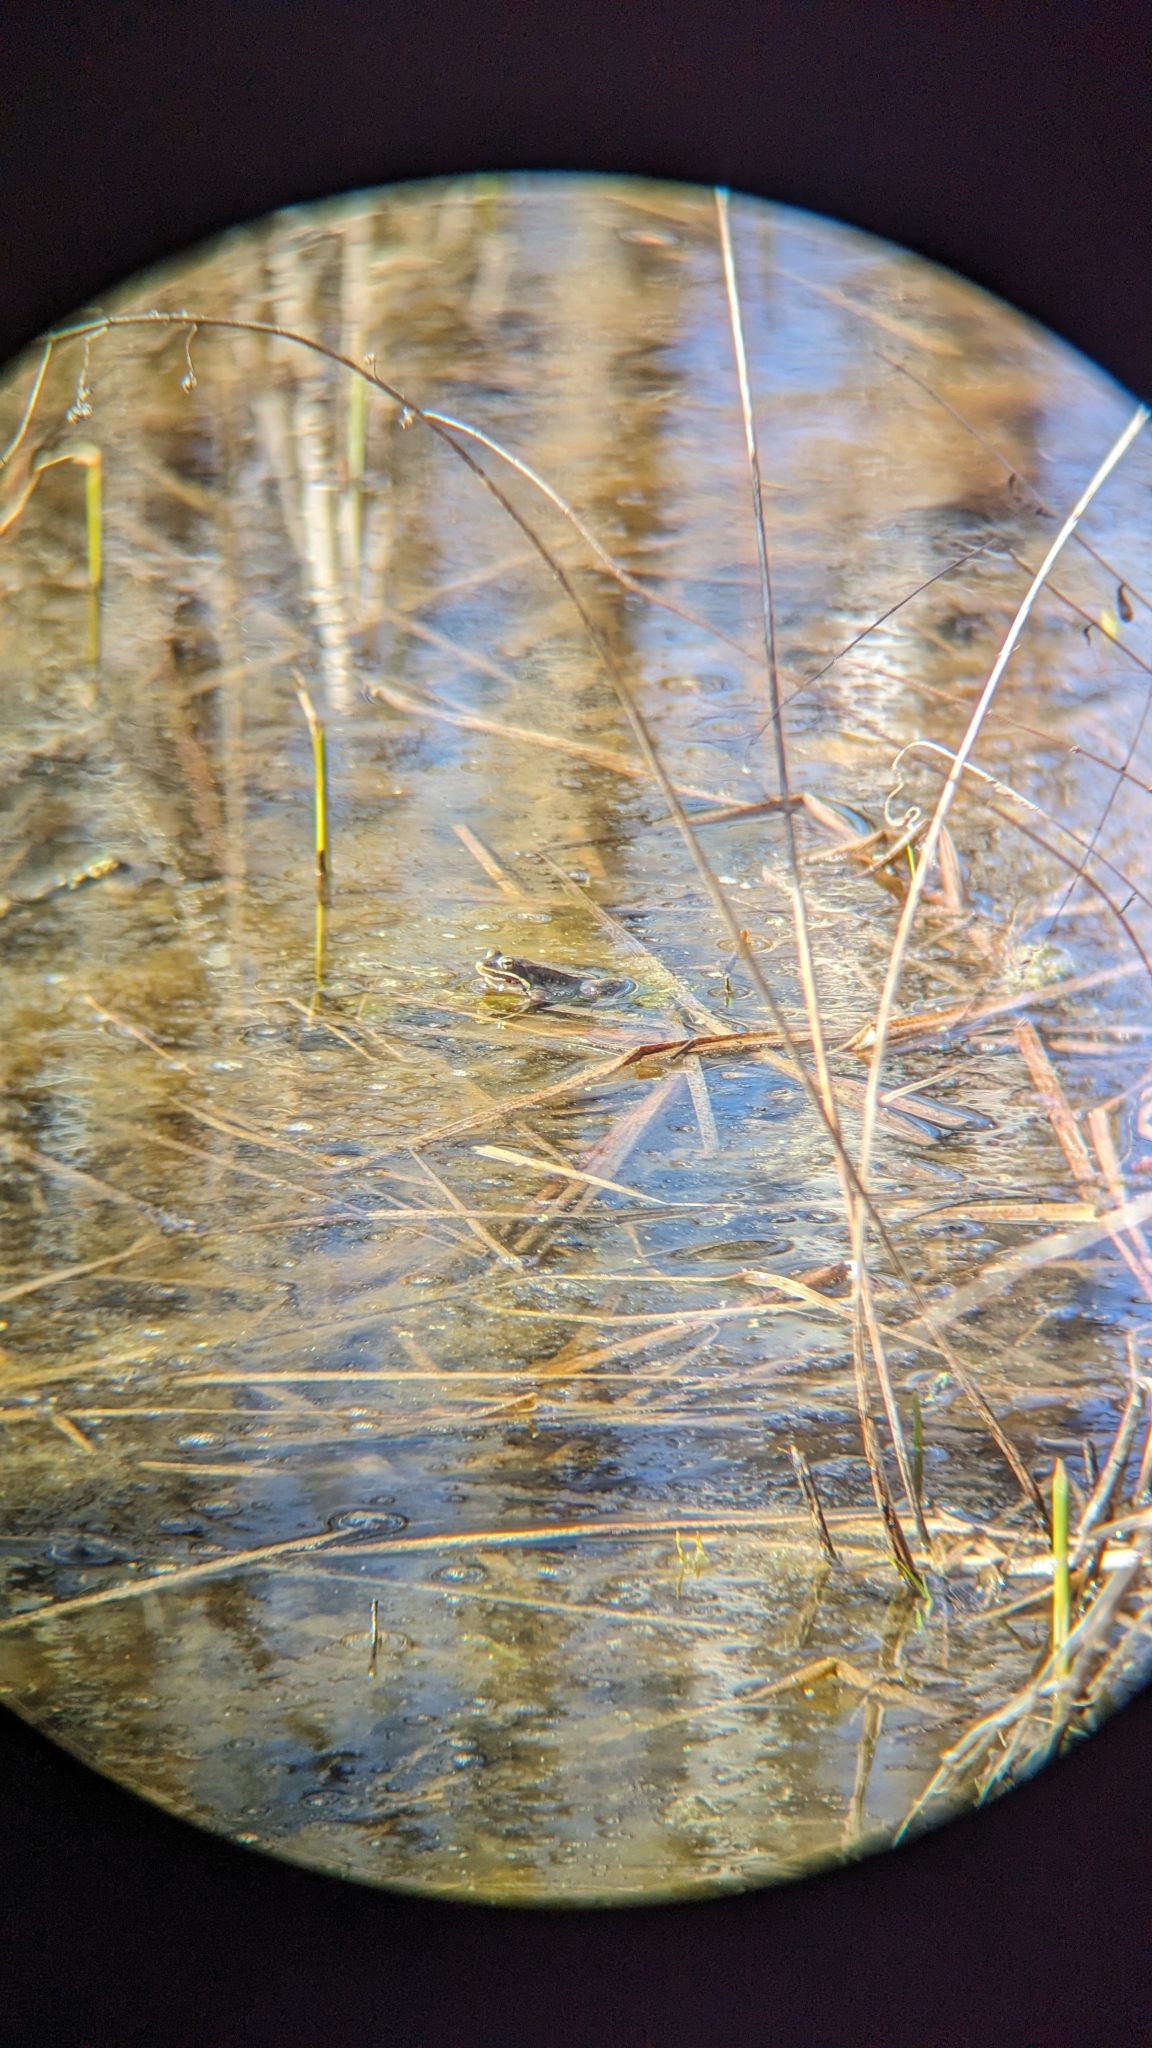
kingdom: Animalia
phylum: Chordata
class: Amphibia
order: Anura
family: Ranidae
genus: Lithobates
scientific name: Lithobates sylvaticus
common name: Wood frog
